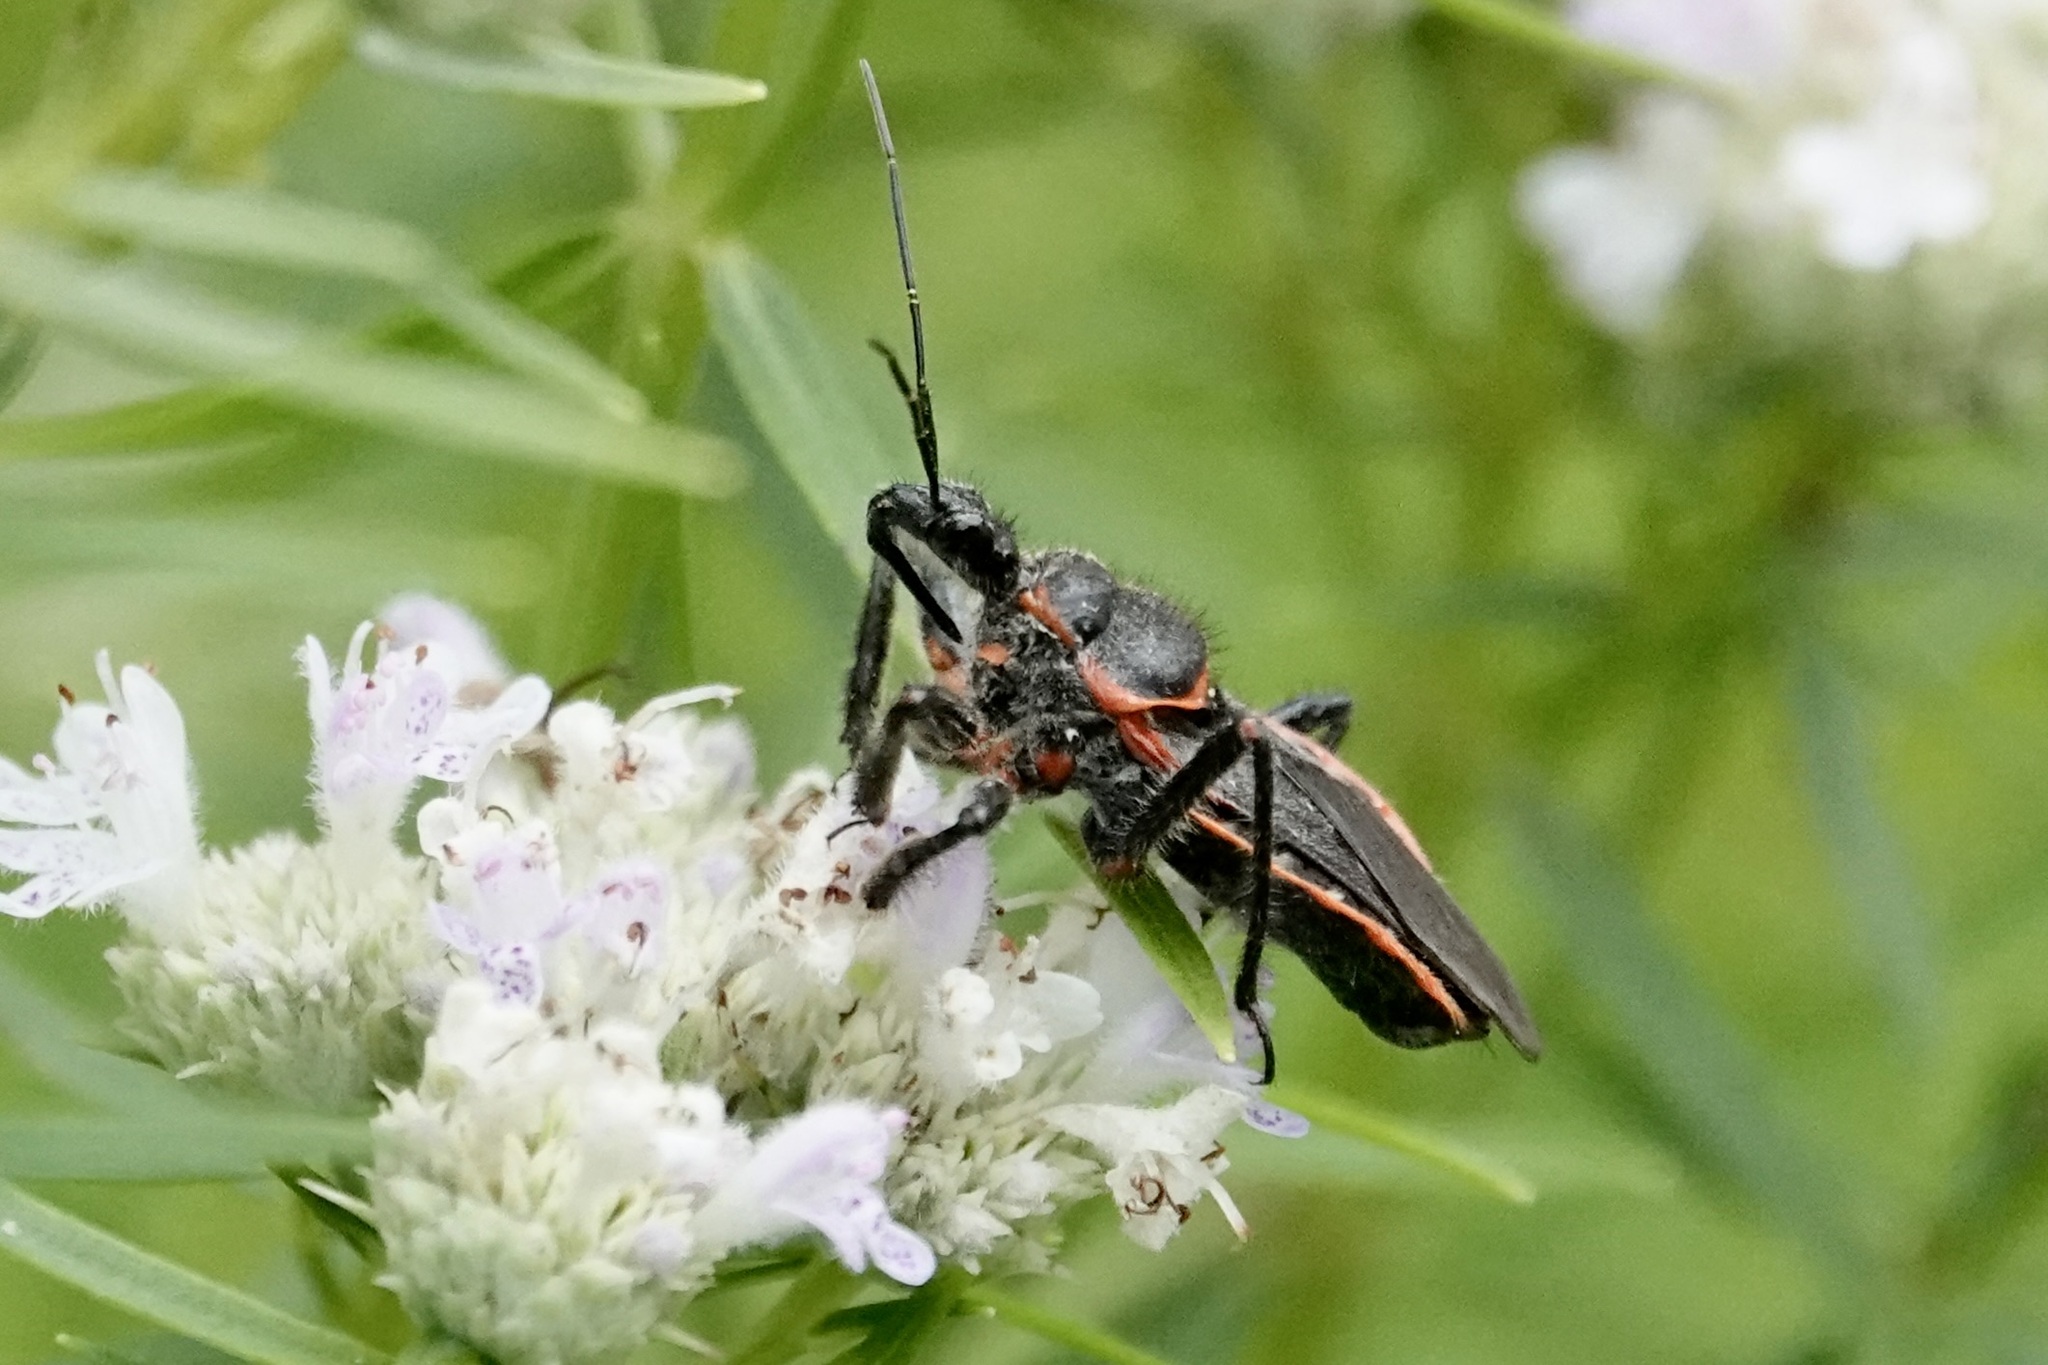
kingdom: Animalia
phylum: Arthropoda
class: Insecta
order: Hemiptera
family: Reduviidae
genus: Apiomerus
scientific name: Apiomerus crassipes
